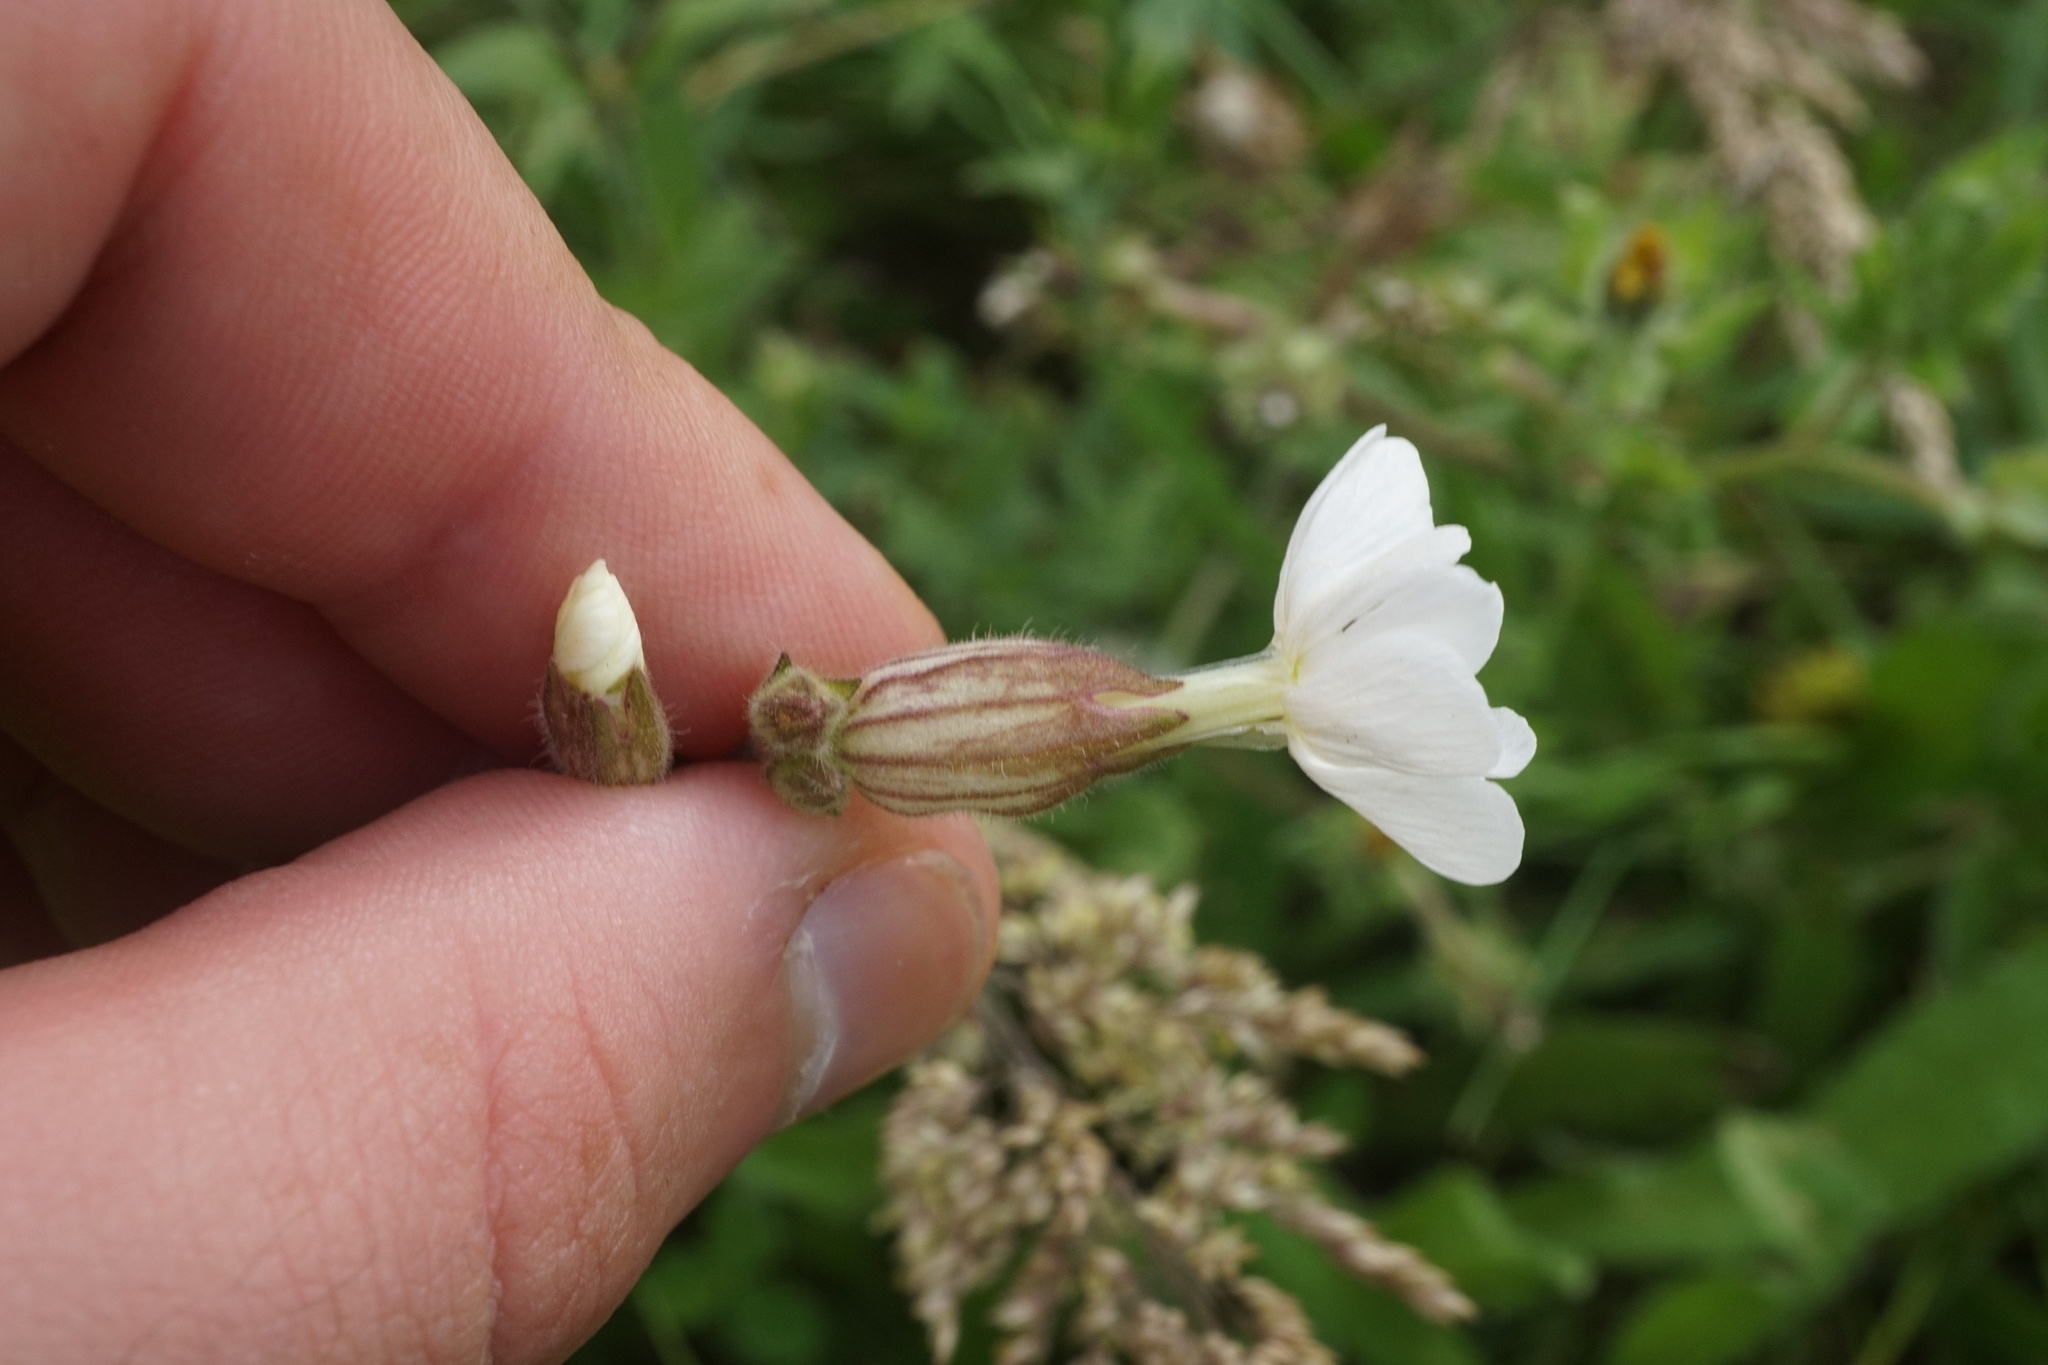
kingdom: Plantae
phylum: Tracheophyta
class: Magnoliopsida
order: Caryophyllales
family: Caryophyllaceae
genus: Silene
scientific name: Silene latifolia
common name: White campion
